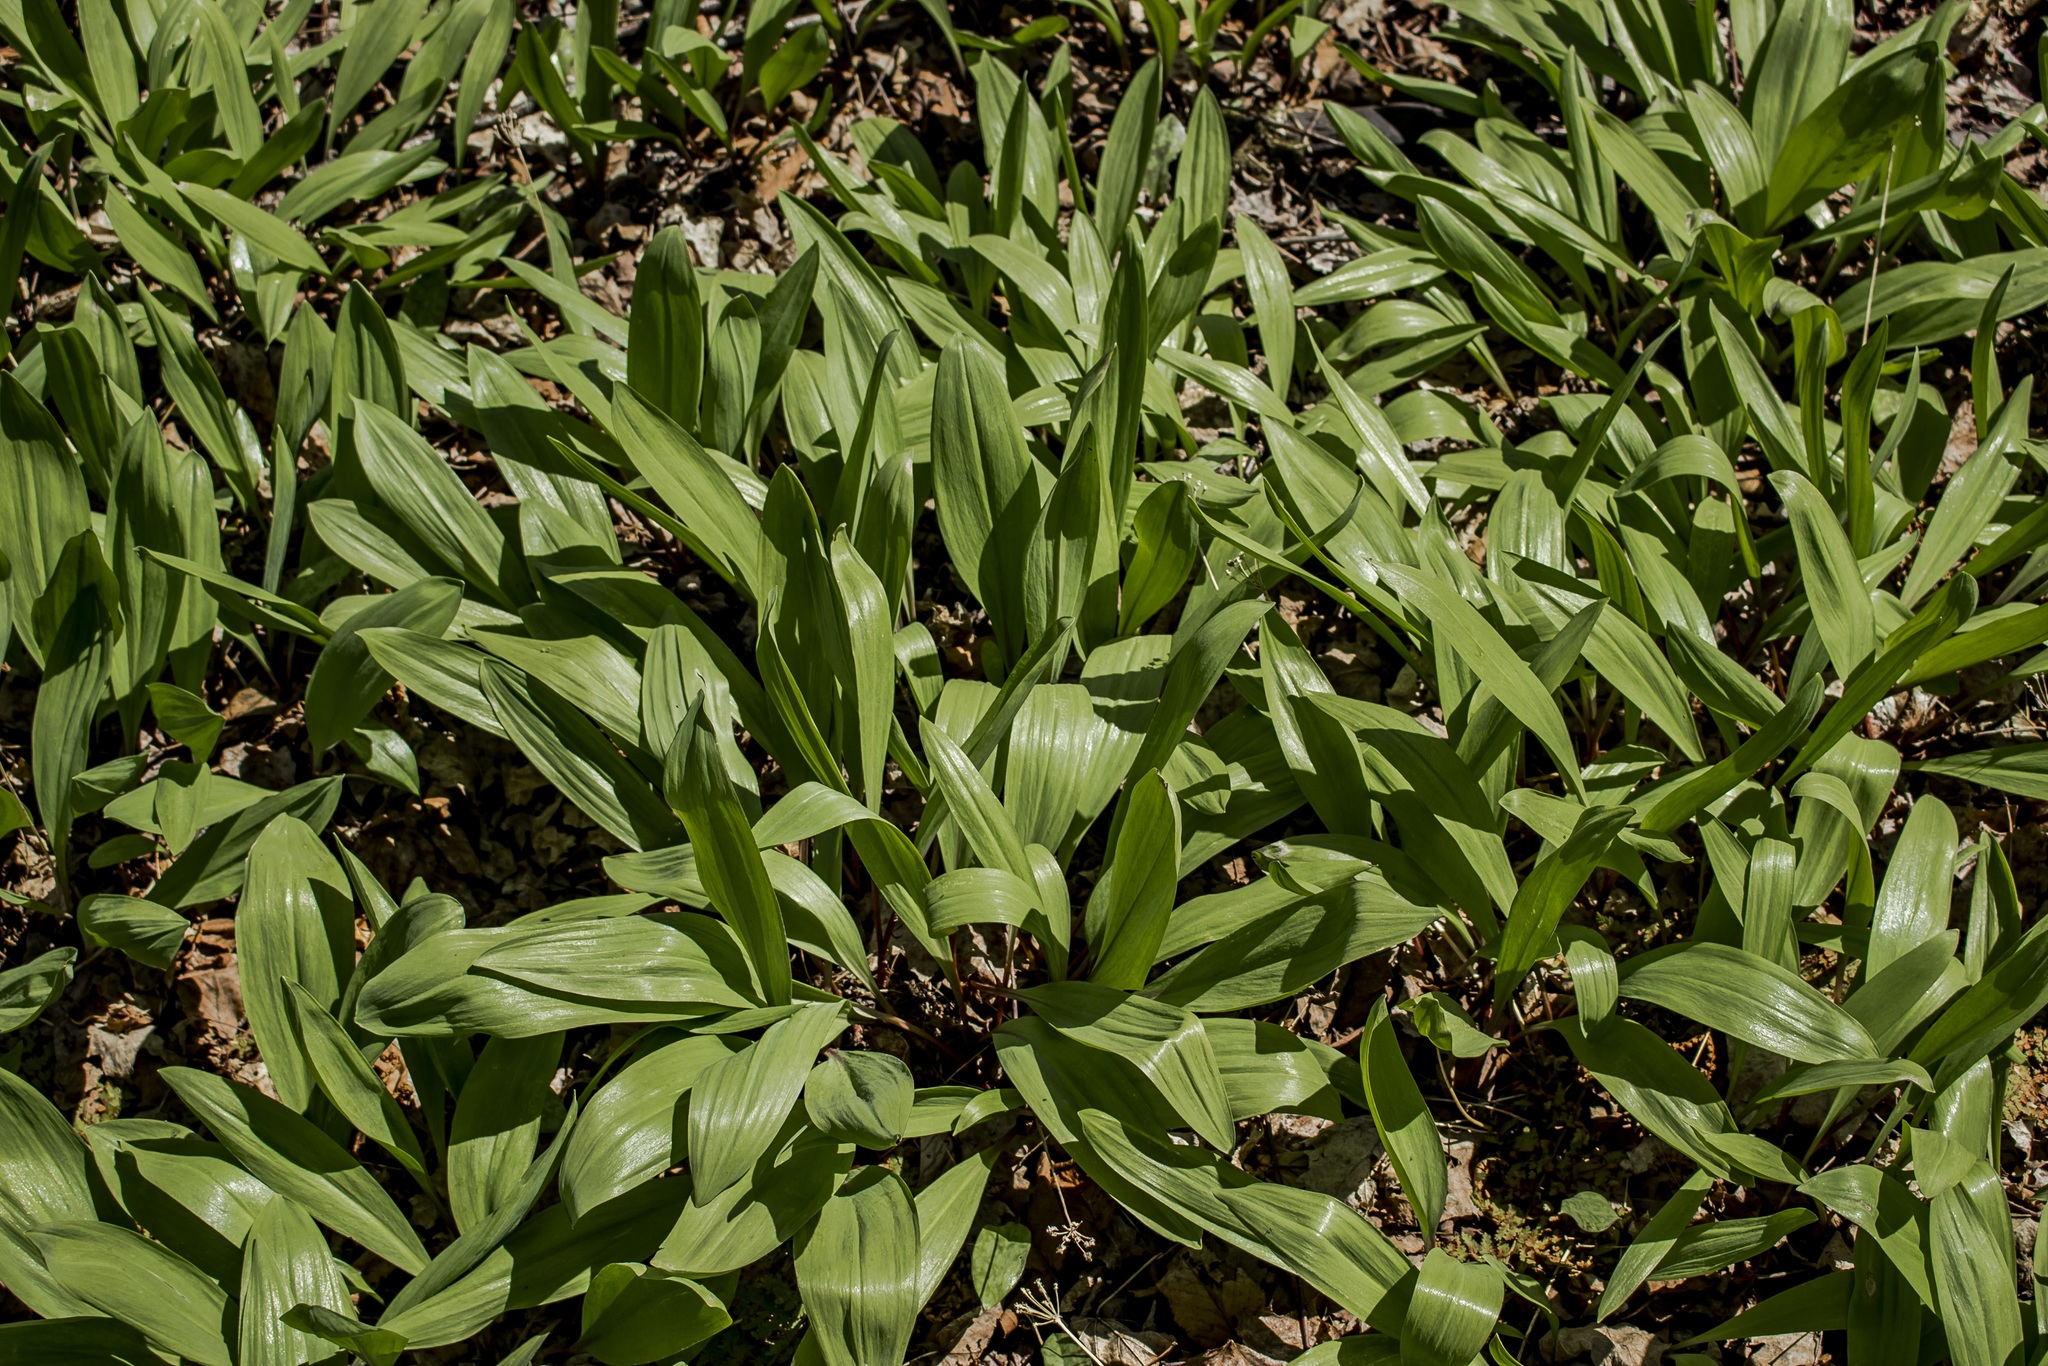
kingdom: Plantae
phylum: Tracheophyta
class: Liliopsida
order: Asparagales
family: Amaryllidaceae
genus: Allium
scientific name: Allium tricoccum
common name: Ramp
